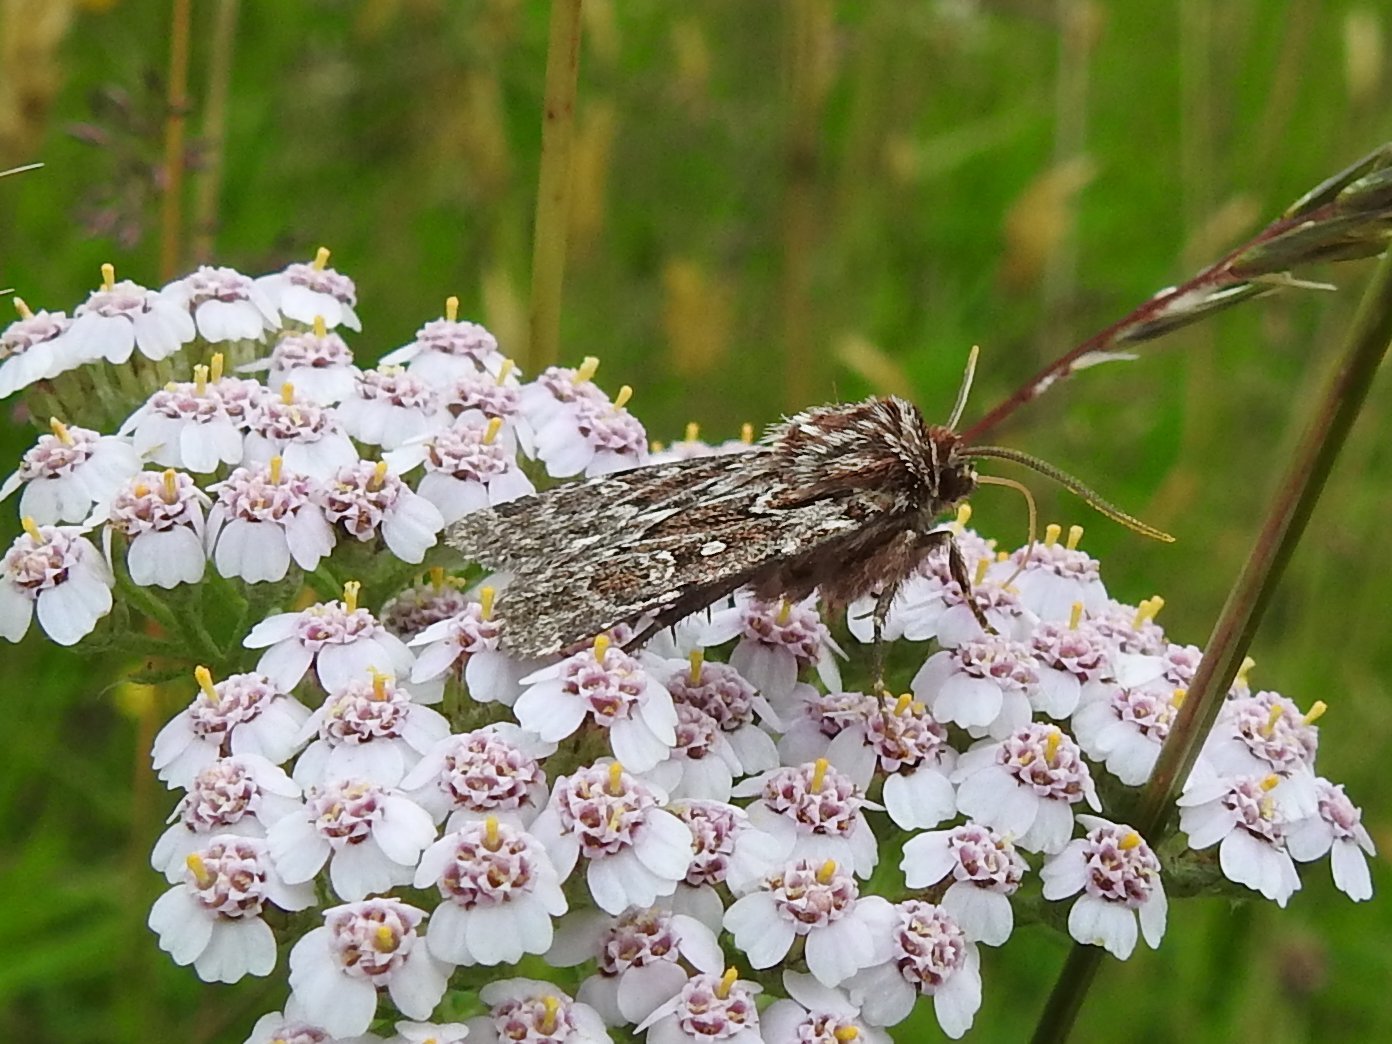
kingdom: Animalia
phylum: Arthropoda
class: Insecta
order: Lepidoptera
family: Noctuidae
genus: Lycophotia
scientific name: Lycophotia porphyrea
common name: True lover's knot
